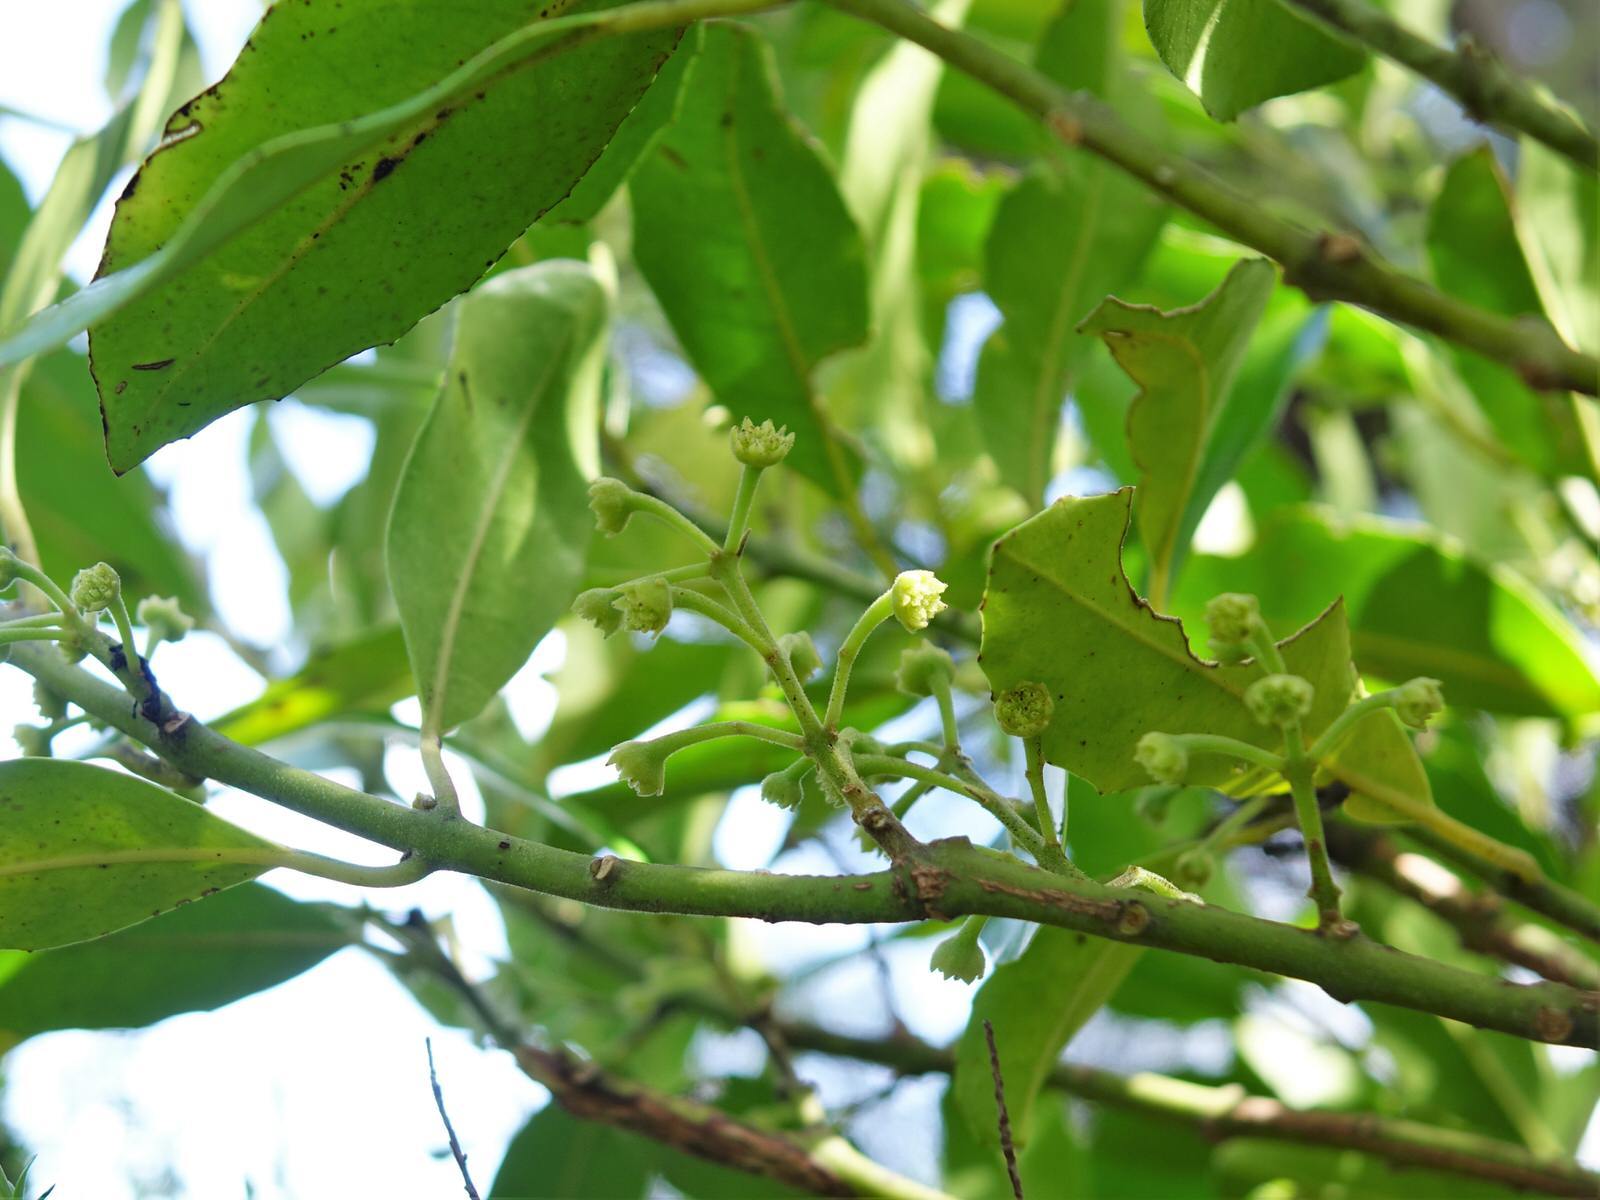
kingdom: Plantae
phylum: Tracheophyta
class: Magnoliopsida
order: Laurales
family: Monimiaceae
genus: Hedycarya
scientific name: Hedycarya arborea
